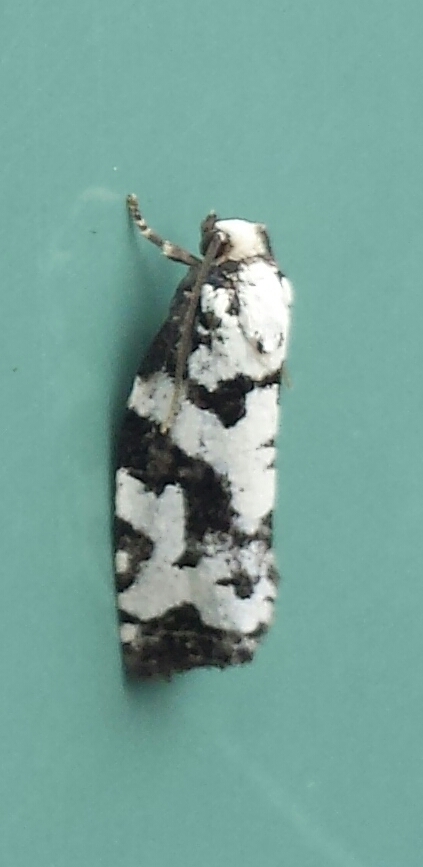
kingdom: Animalia
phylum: Arthropoda
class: Insecta
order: Lepidoptera
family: Tortricidae
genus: Archips
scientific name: Archips dissitana
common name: Boldly-marked archips moth
